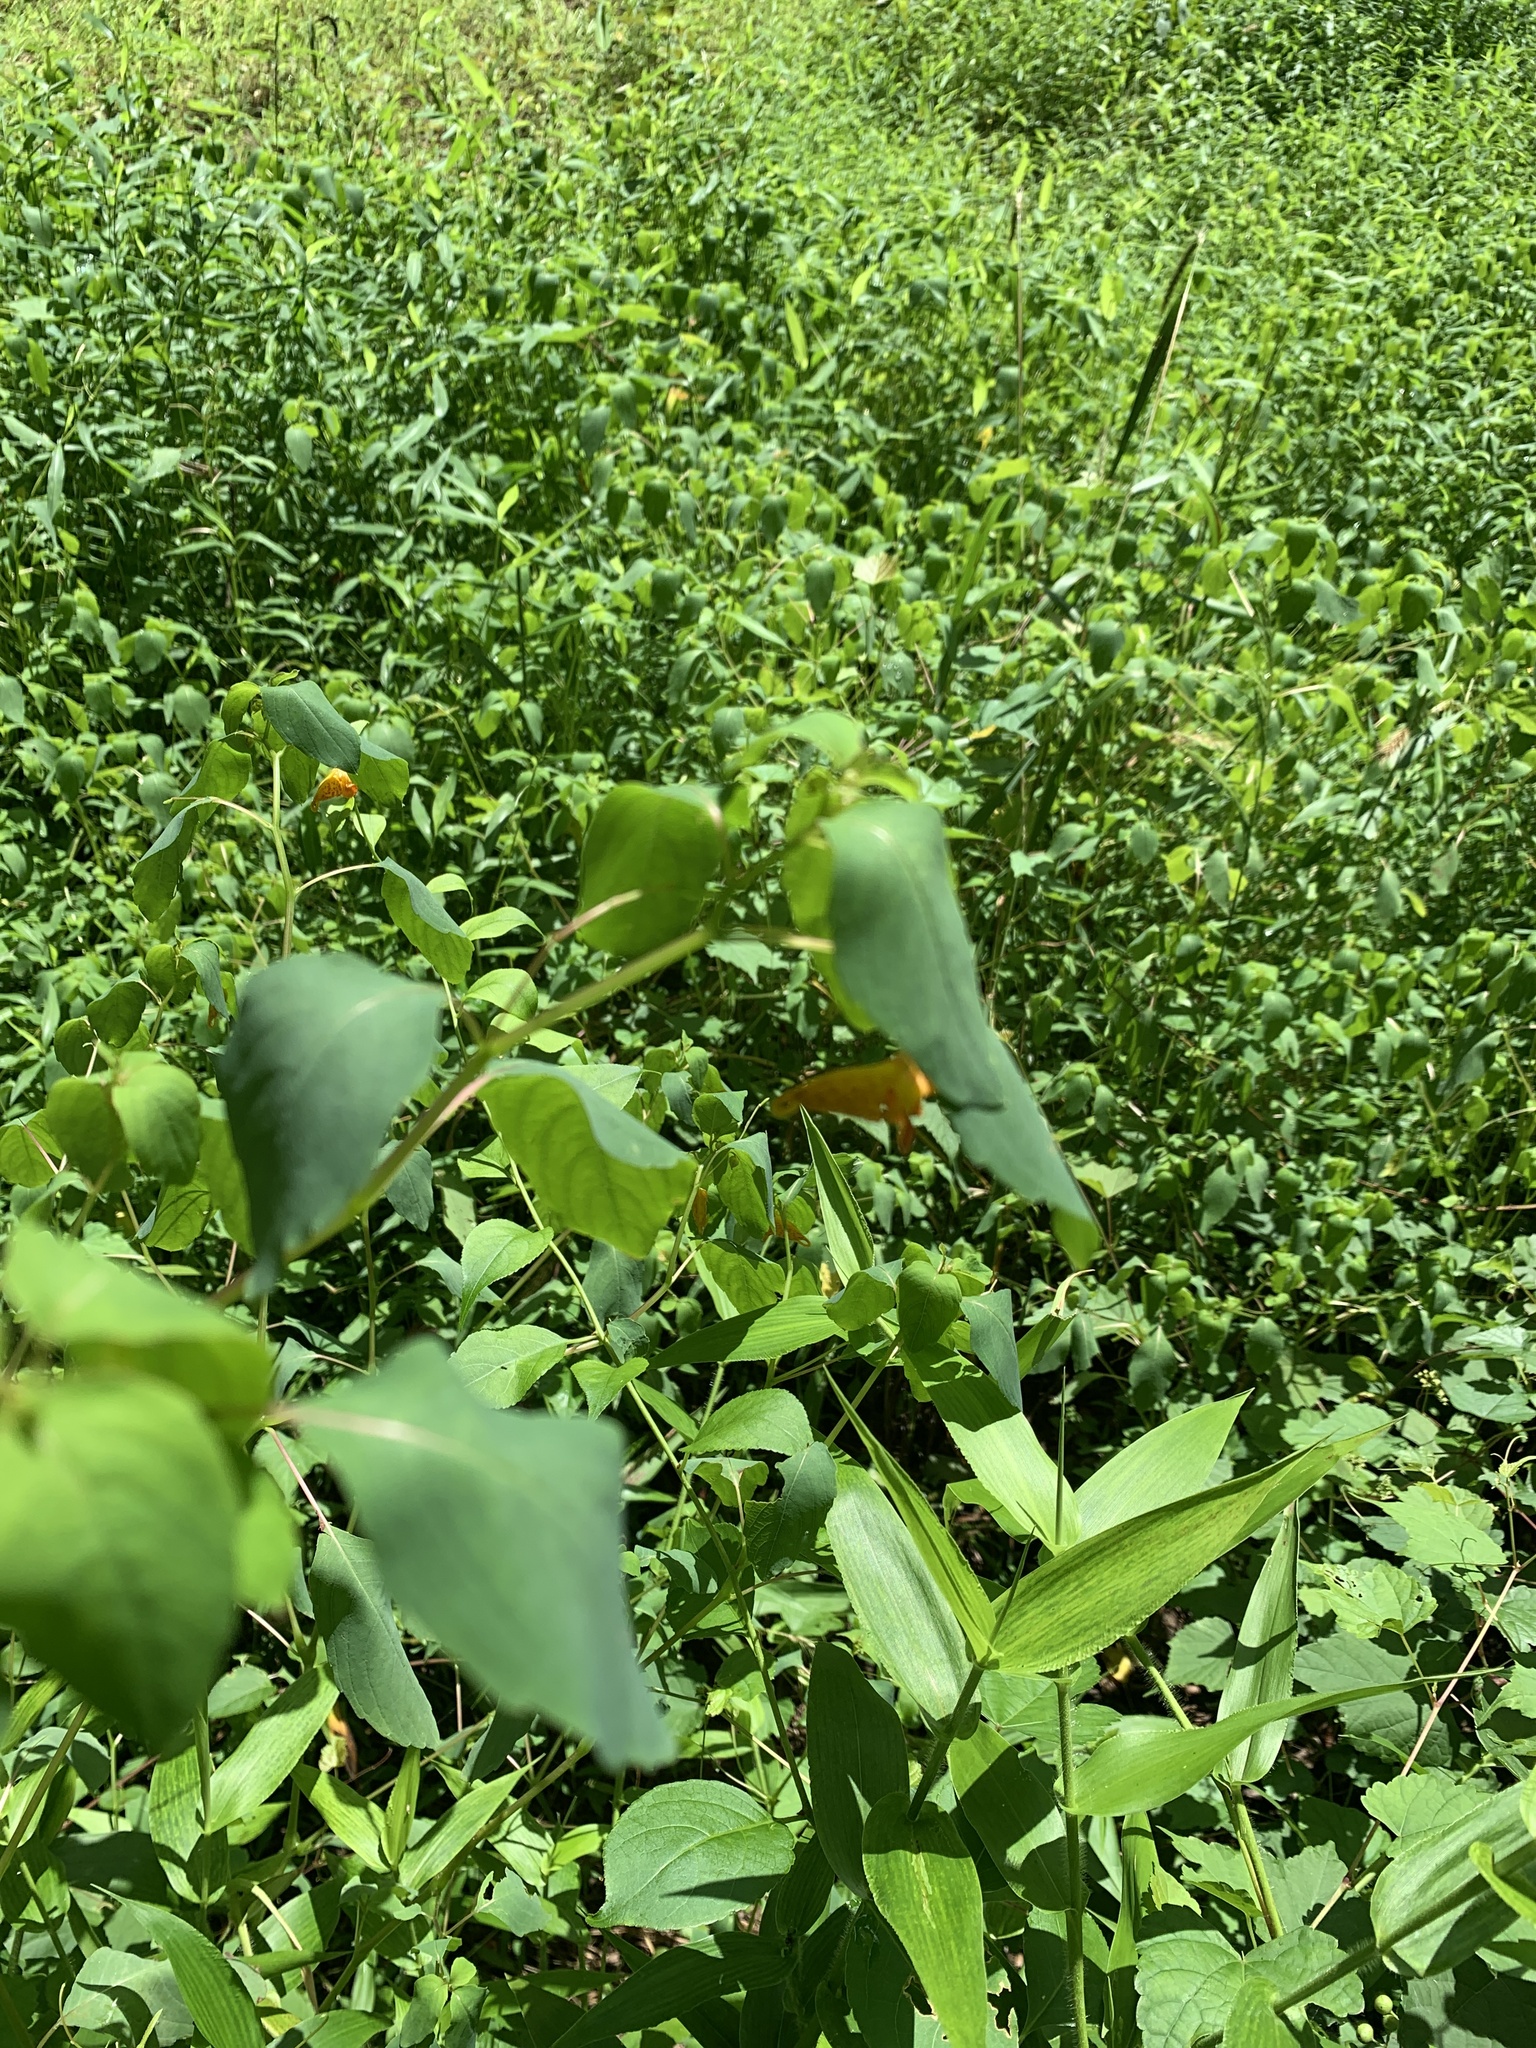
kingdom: Plantae
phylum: Tracheophyta
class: Magnoliopsida
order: Ericales
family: Balsaminaceae
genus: Impatiens
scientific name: Impatiens capensis
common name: Orange balsam
